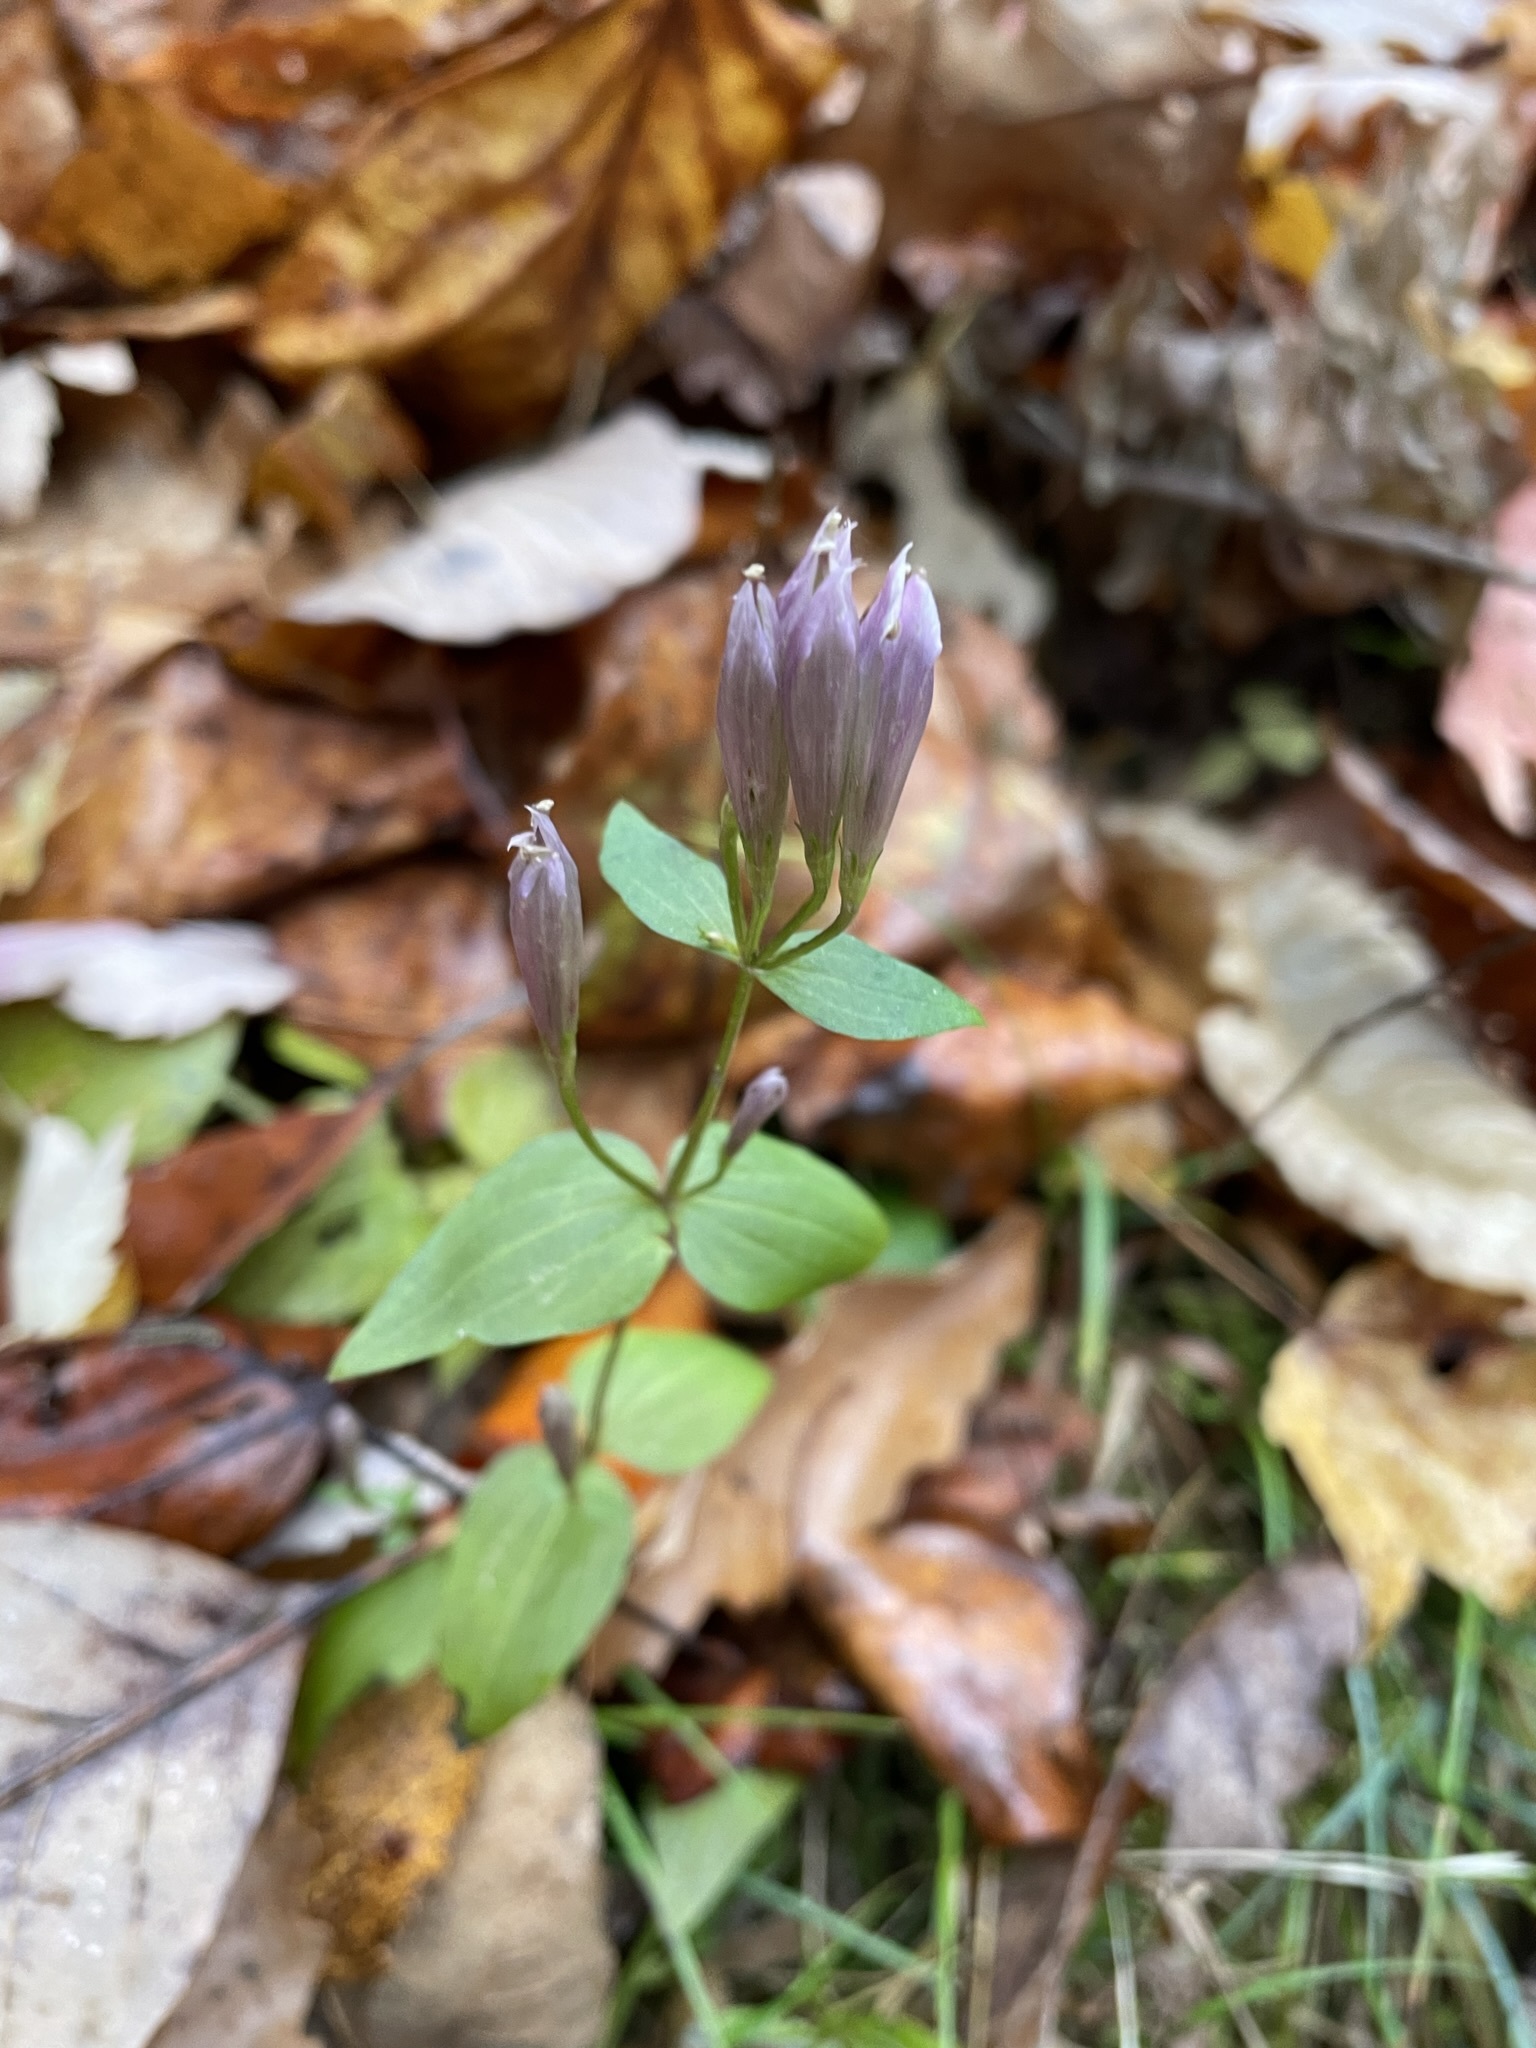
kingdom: Plantae
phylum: Tracheophyta
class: Magnoliopsida
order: Gentianales
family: Gentianaceae
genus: Gentianella
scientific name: Gentianella quinquefolia
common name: Agueweed
